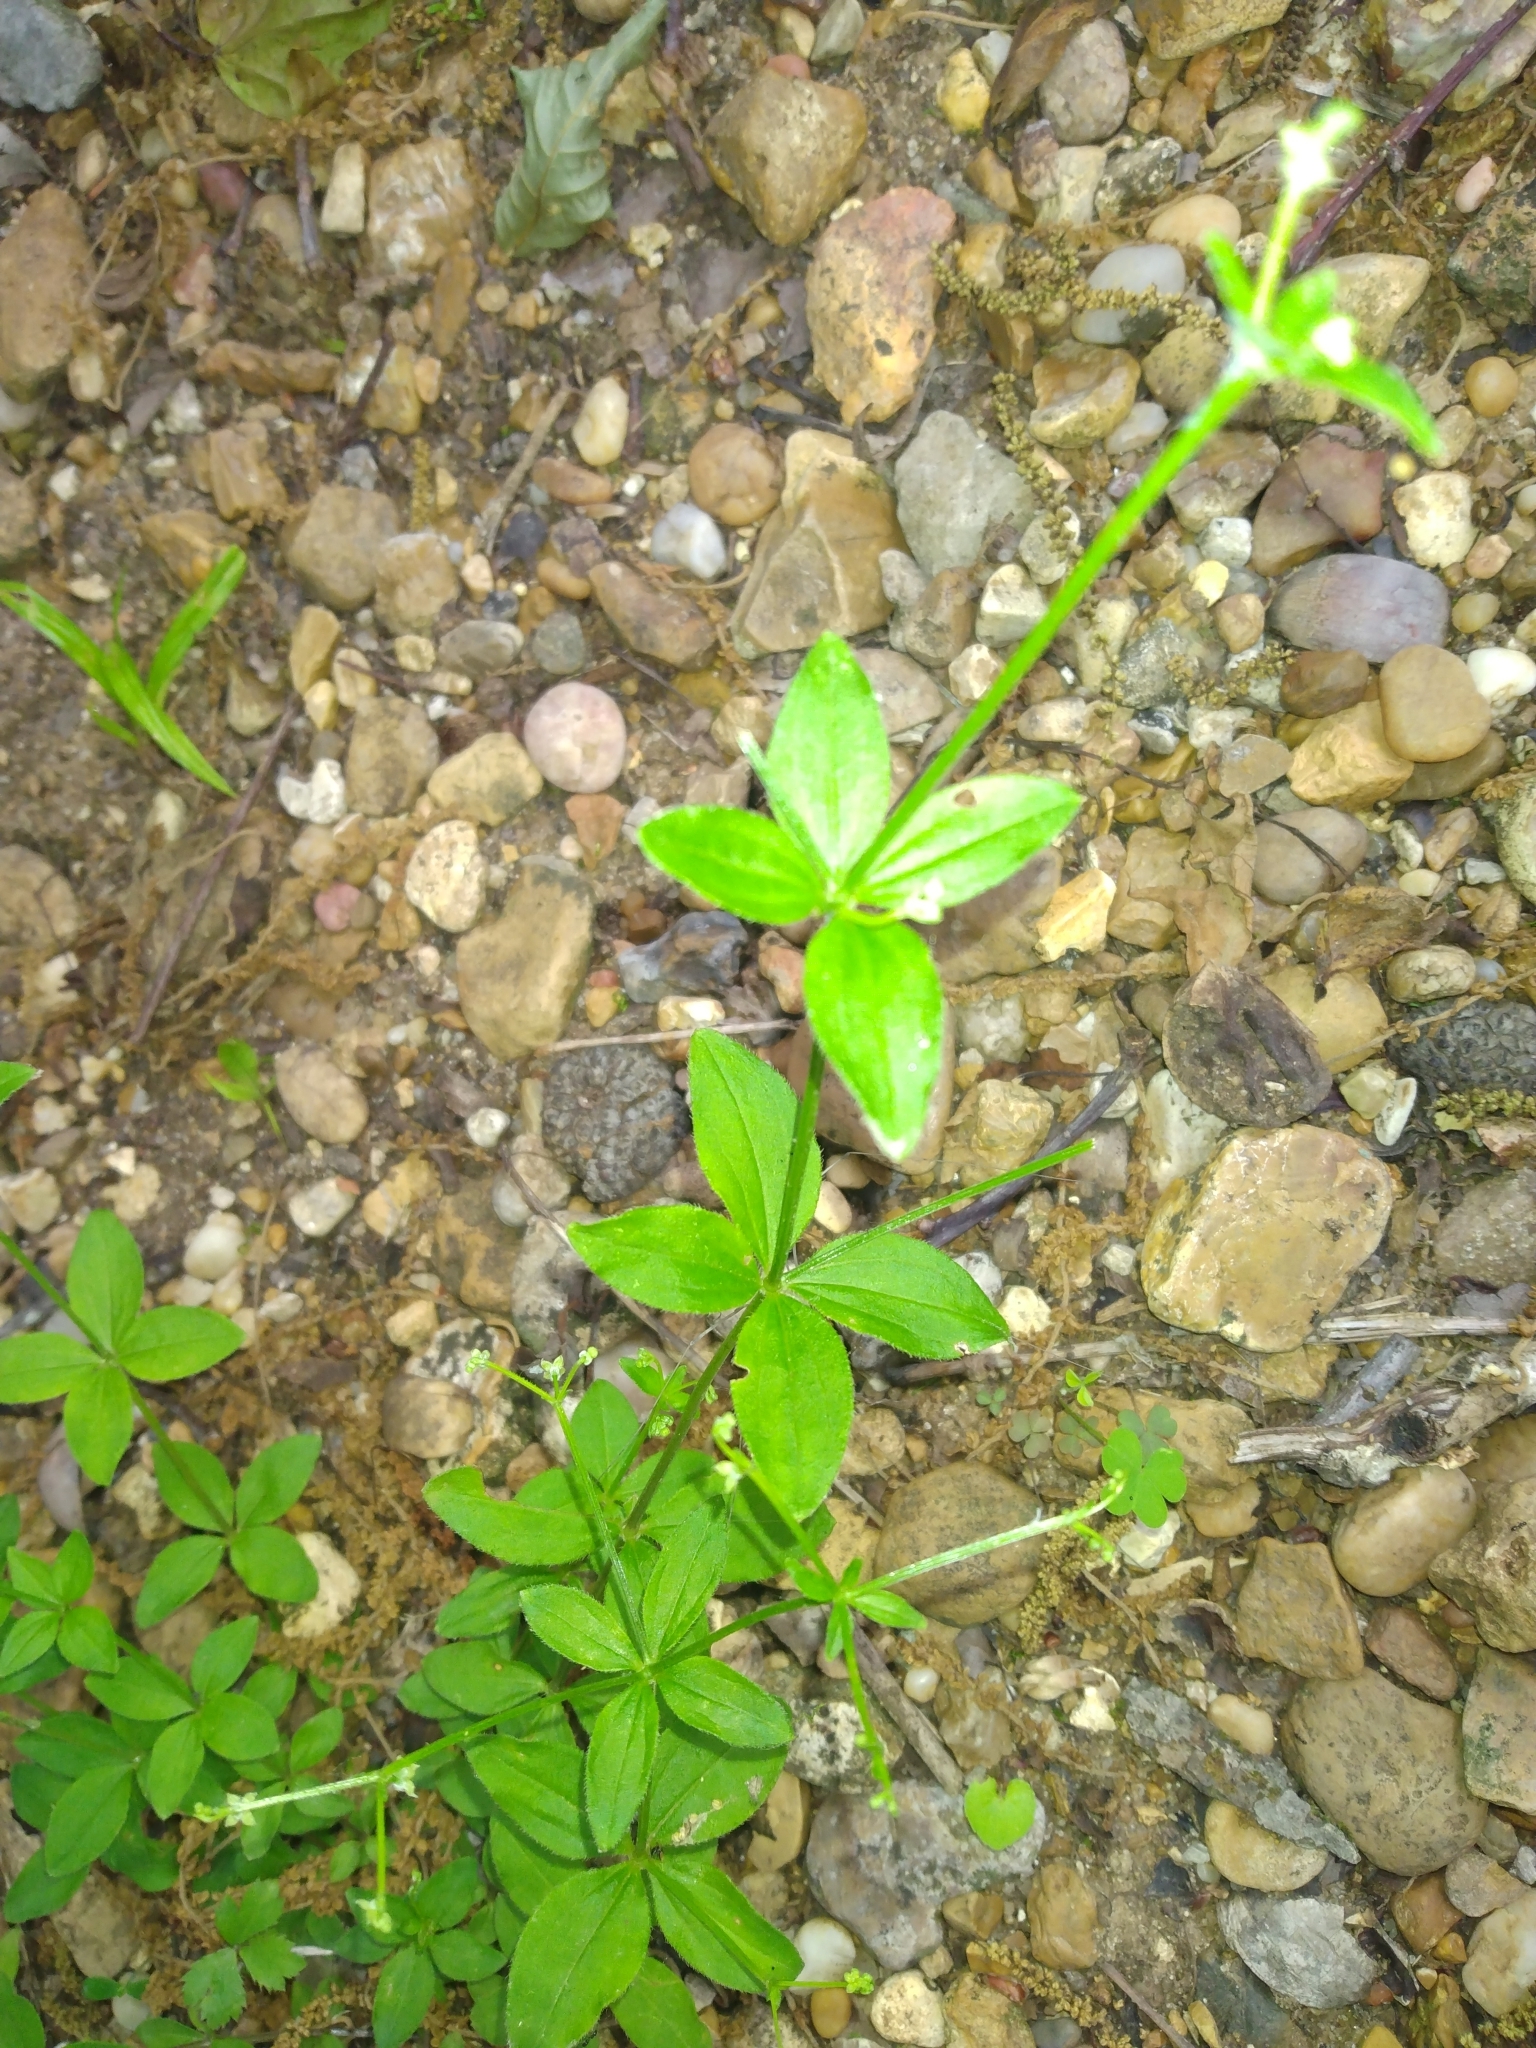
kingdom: Plantae
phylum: Tracheophyta
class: Magnoliopsida
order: Gentianales
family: Rubiaceae
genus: Galium
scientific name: Galium circaezans
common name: Forest bedstraw
